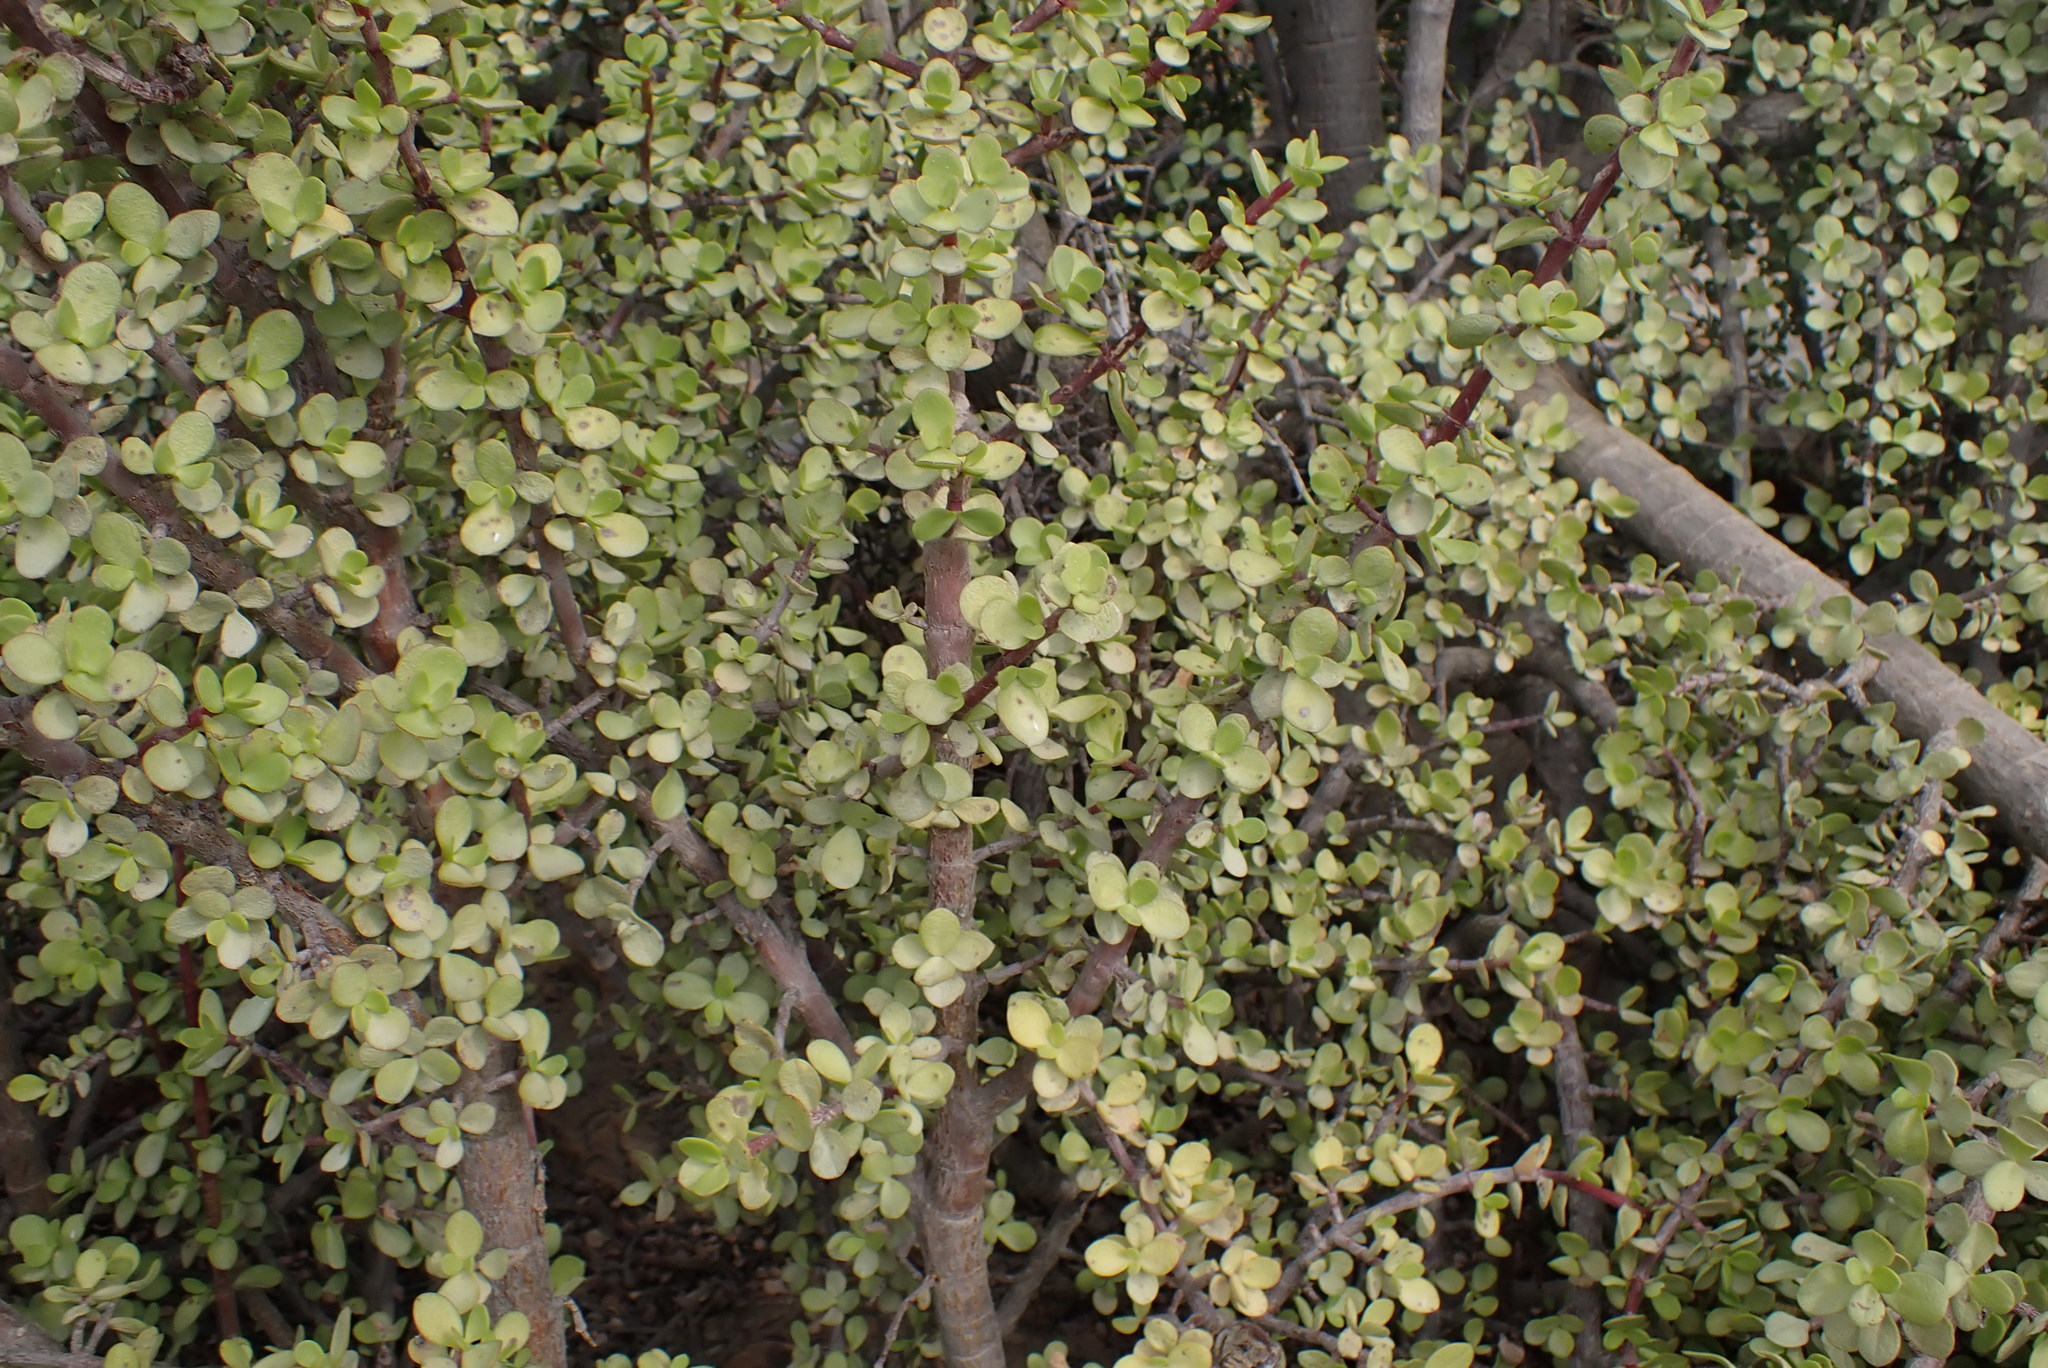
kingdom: Plantae
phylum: Tracheophyta
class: Magnoliopsida
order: Caryophyllales
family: Didiereaceae
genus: Portulacaria
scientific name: Portulacaria afra
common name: Elephant-bush
